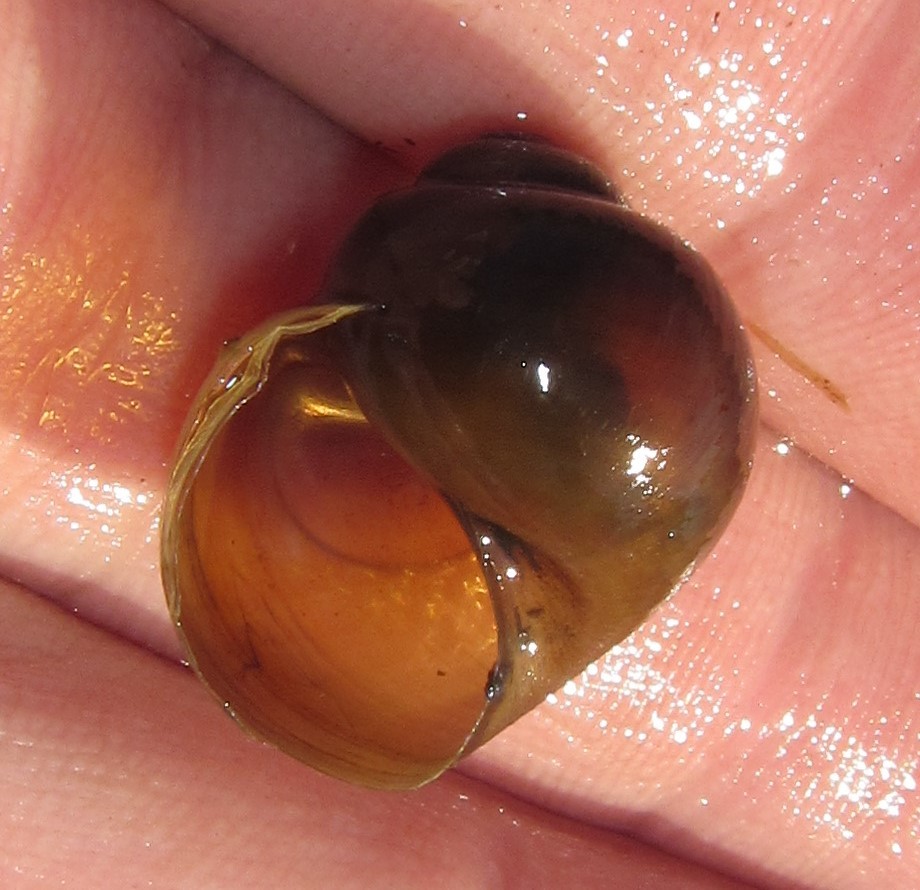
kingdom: Animalia
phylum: Mollusca
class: Gastropoda
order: Architaenioglossa
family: Ampullariidae
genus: Lanistes
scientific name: Lanistes ovum
